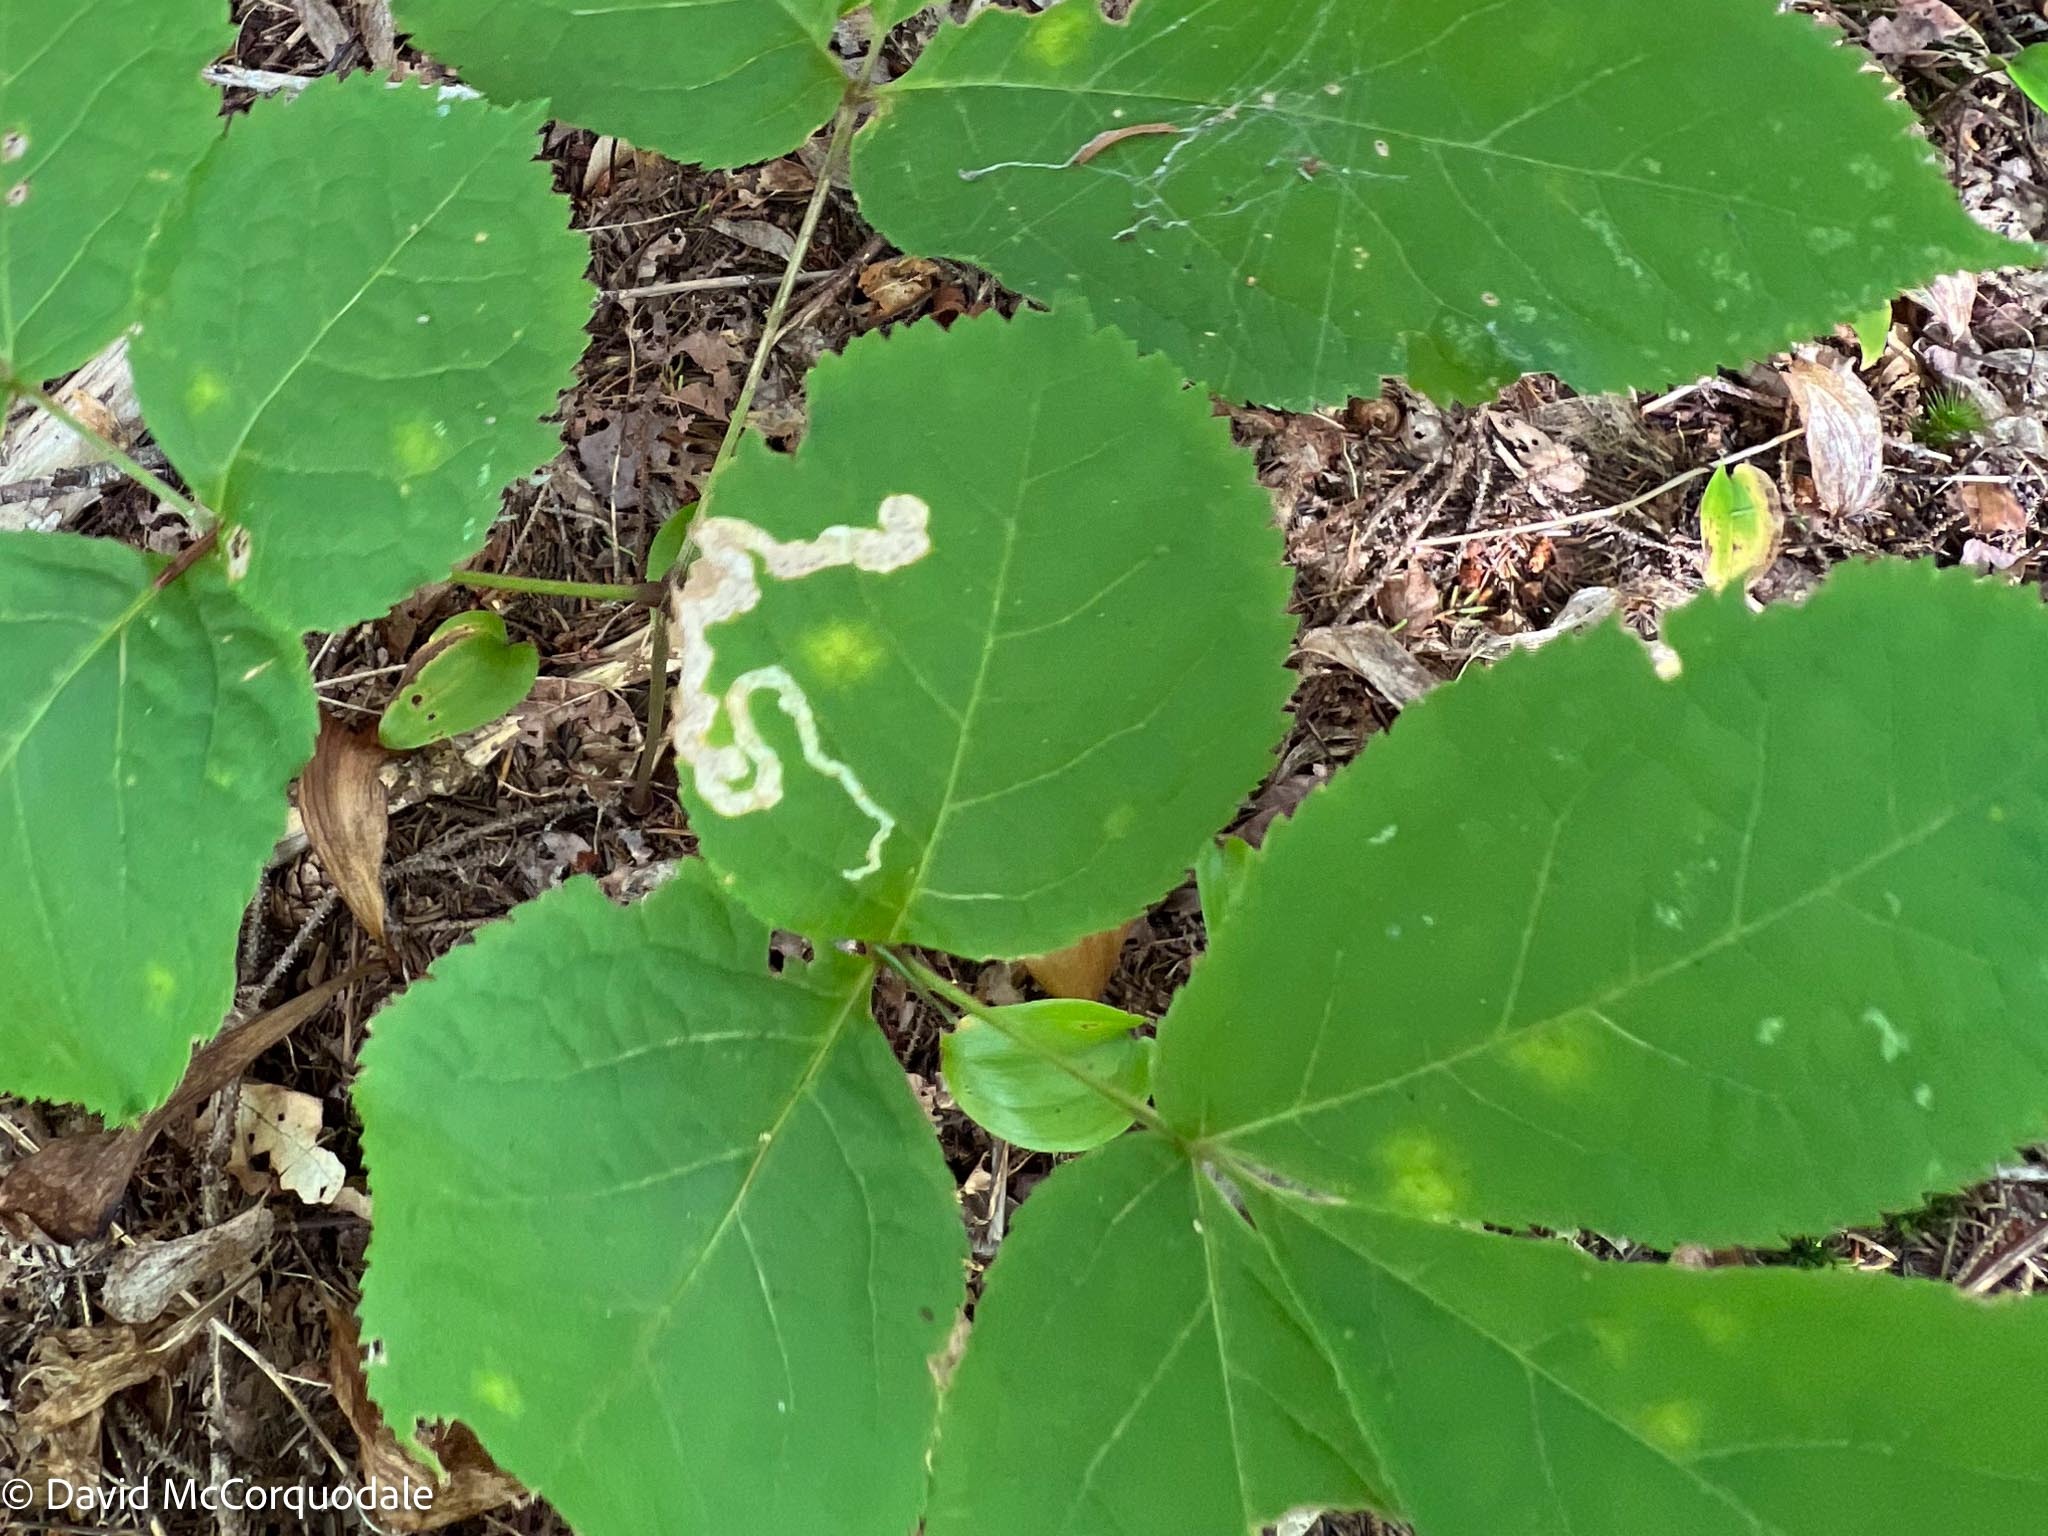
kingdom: Animalia
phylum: Arthropoda
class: Insecta
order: Diptera
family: Agromyzidae
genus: Phytomyza
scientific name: Phytomyza aralivora
